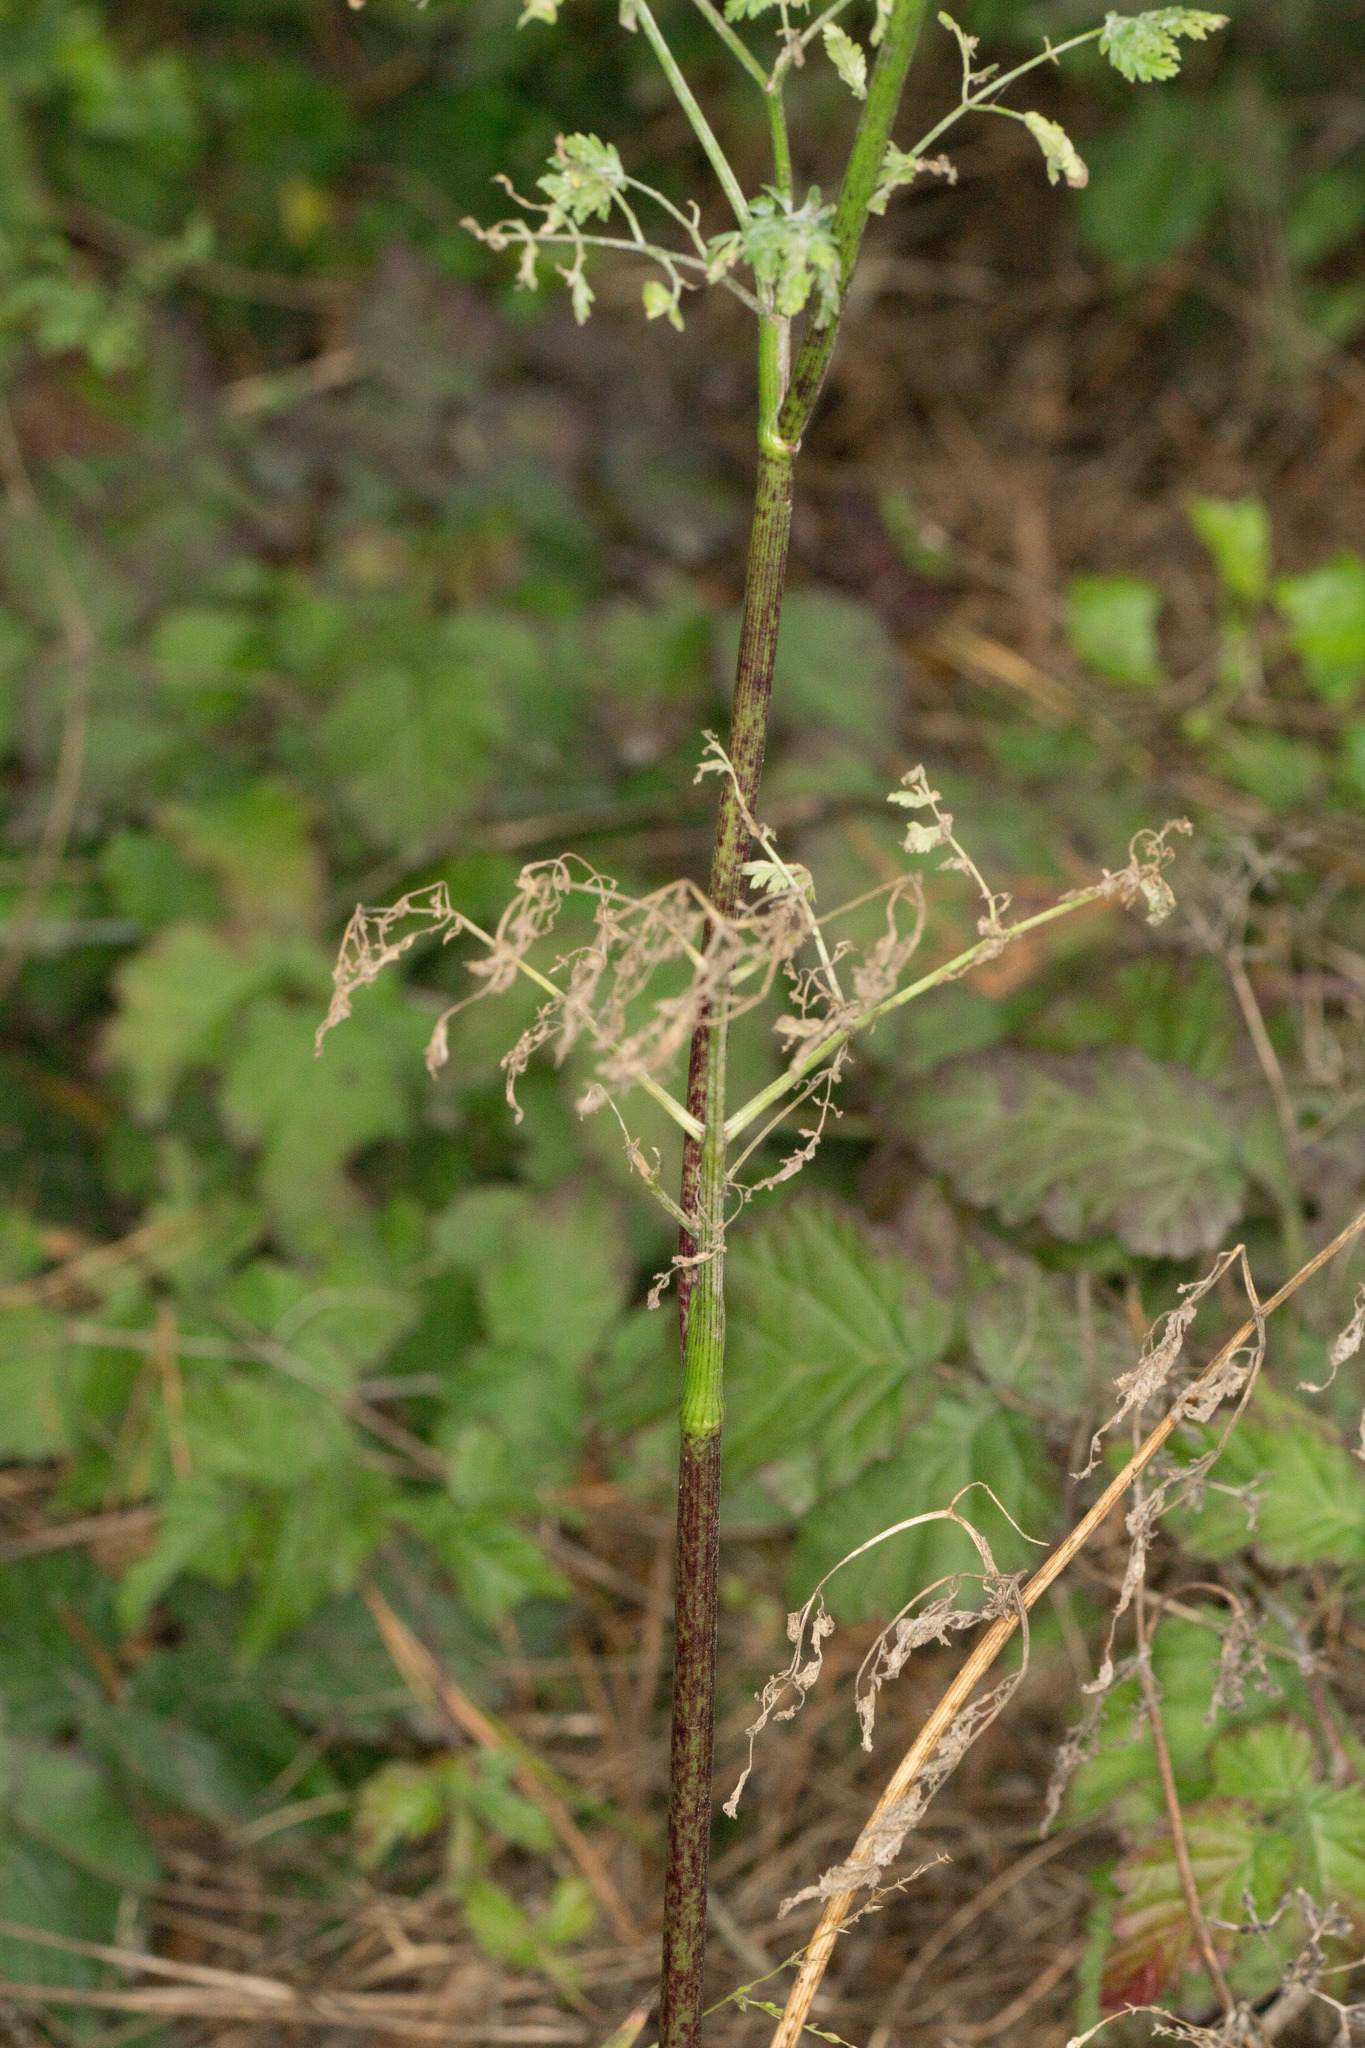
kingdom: Plantae
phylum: Tracheophyta
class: Magnoliopsida
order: Apiales
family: Apiaceae
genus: Conium
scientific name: Conium maculatum
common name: Hemlock
